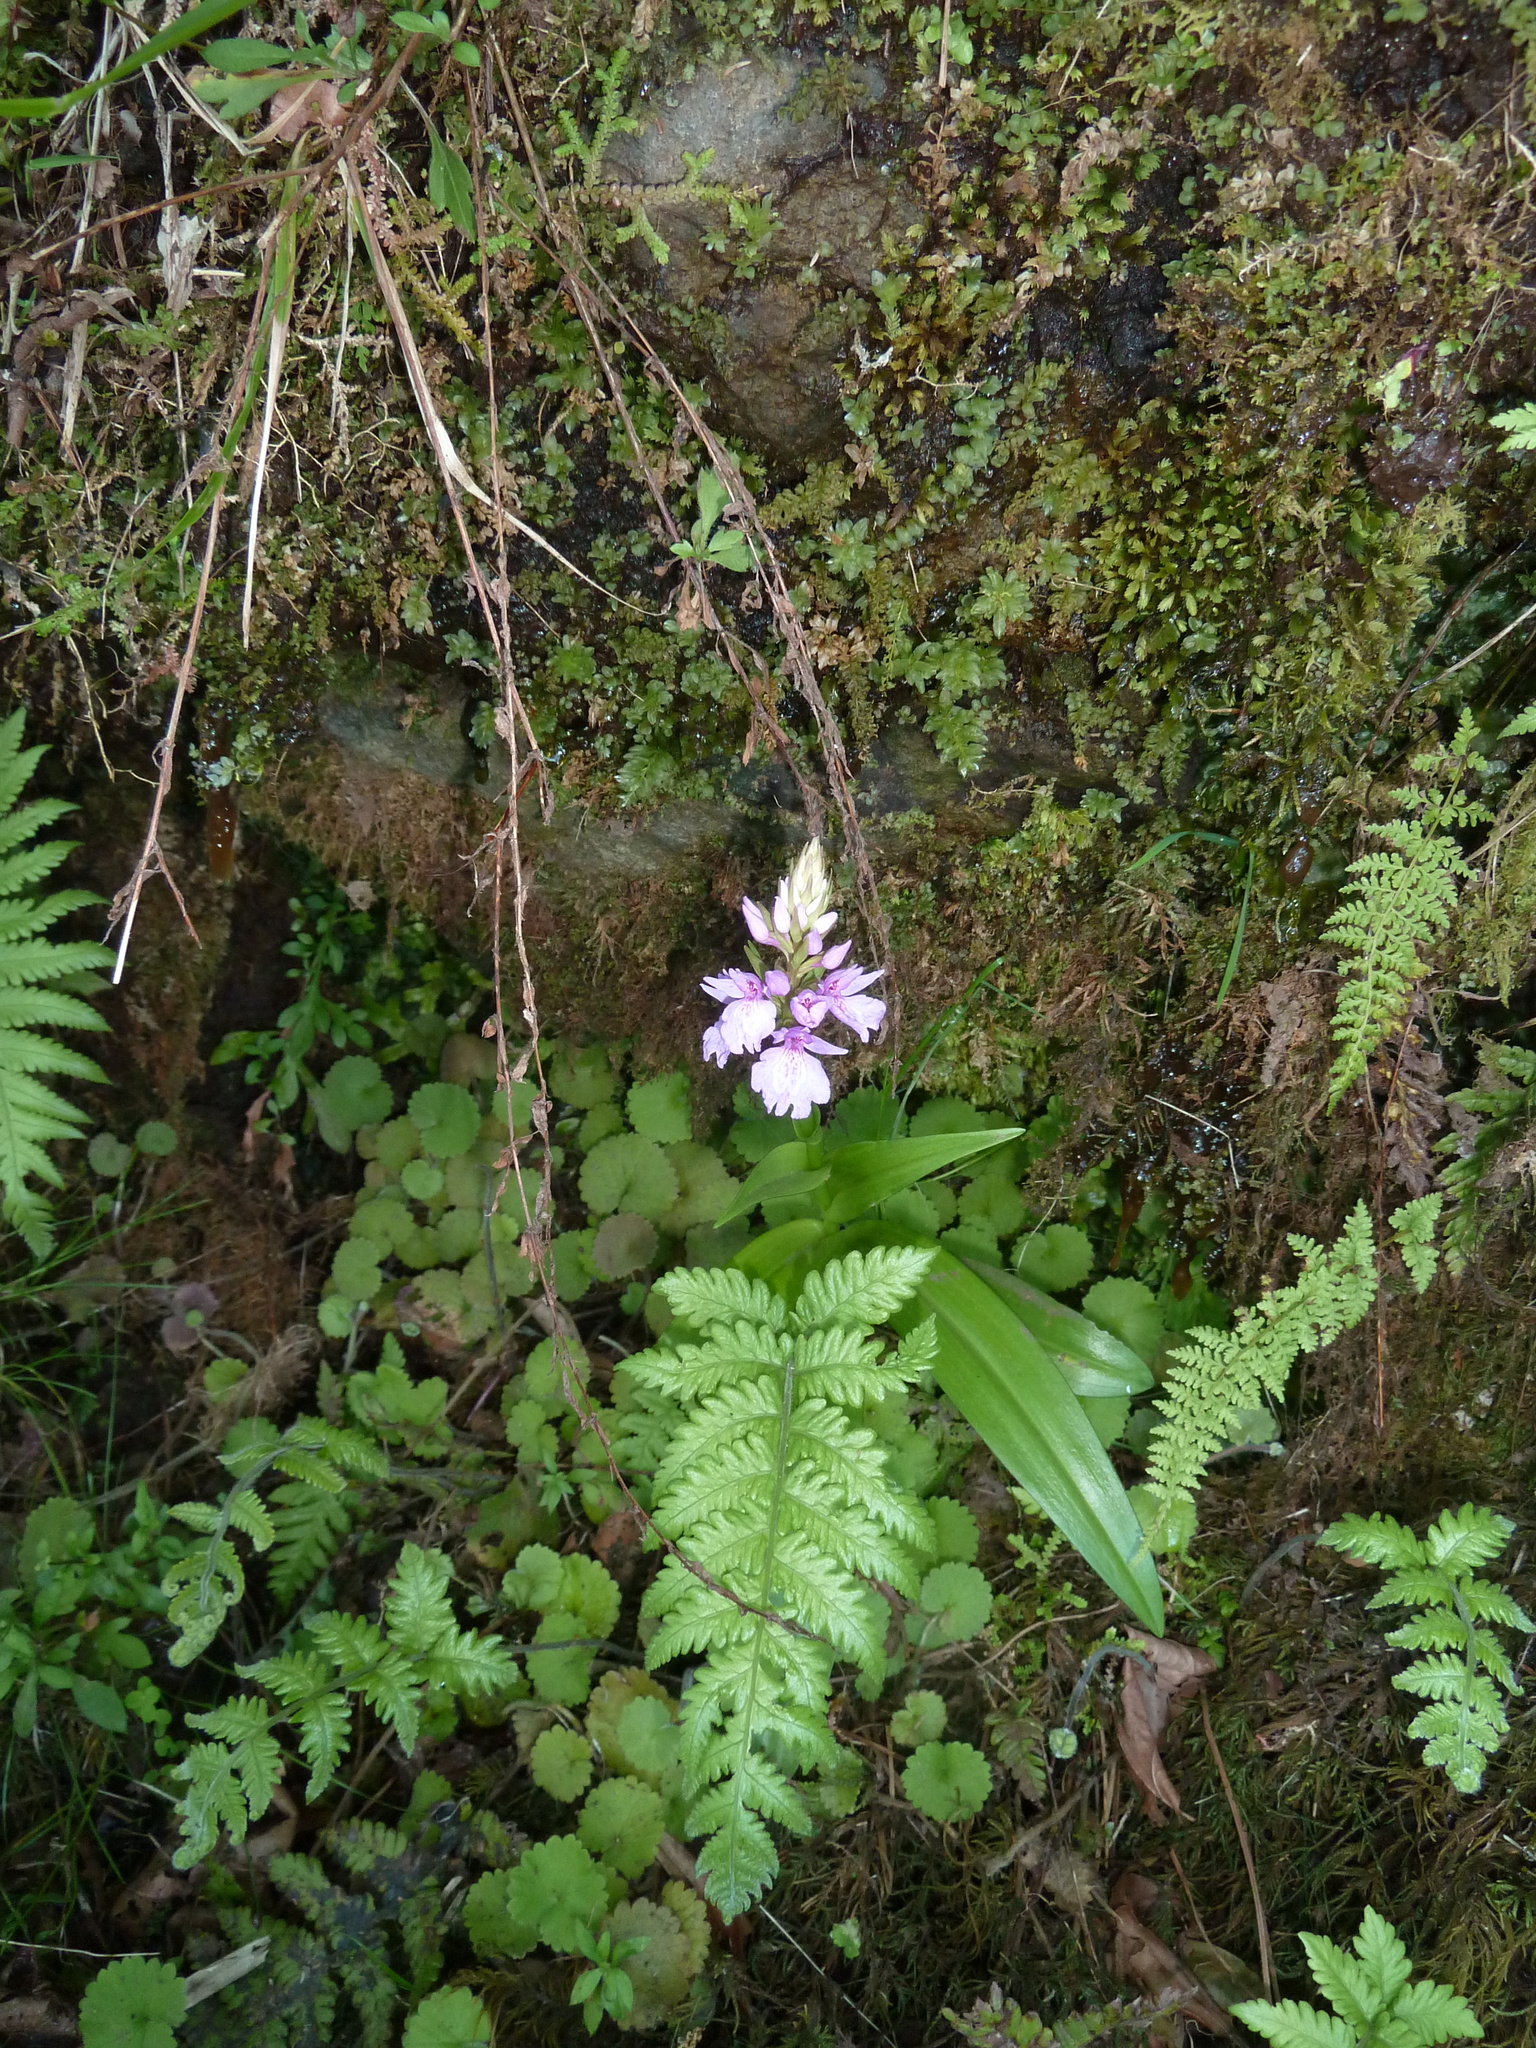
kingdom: Plantae
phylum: Tracheophyta
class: Liliopsida
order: Asparagales
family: Orchidaceae
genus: Dactylorhiza
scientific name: Dactylorhiza foliosa
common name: Richly-leaved dactylorhiza
